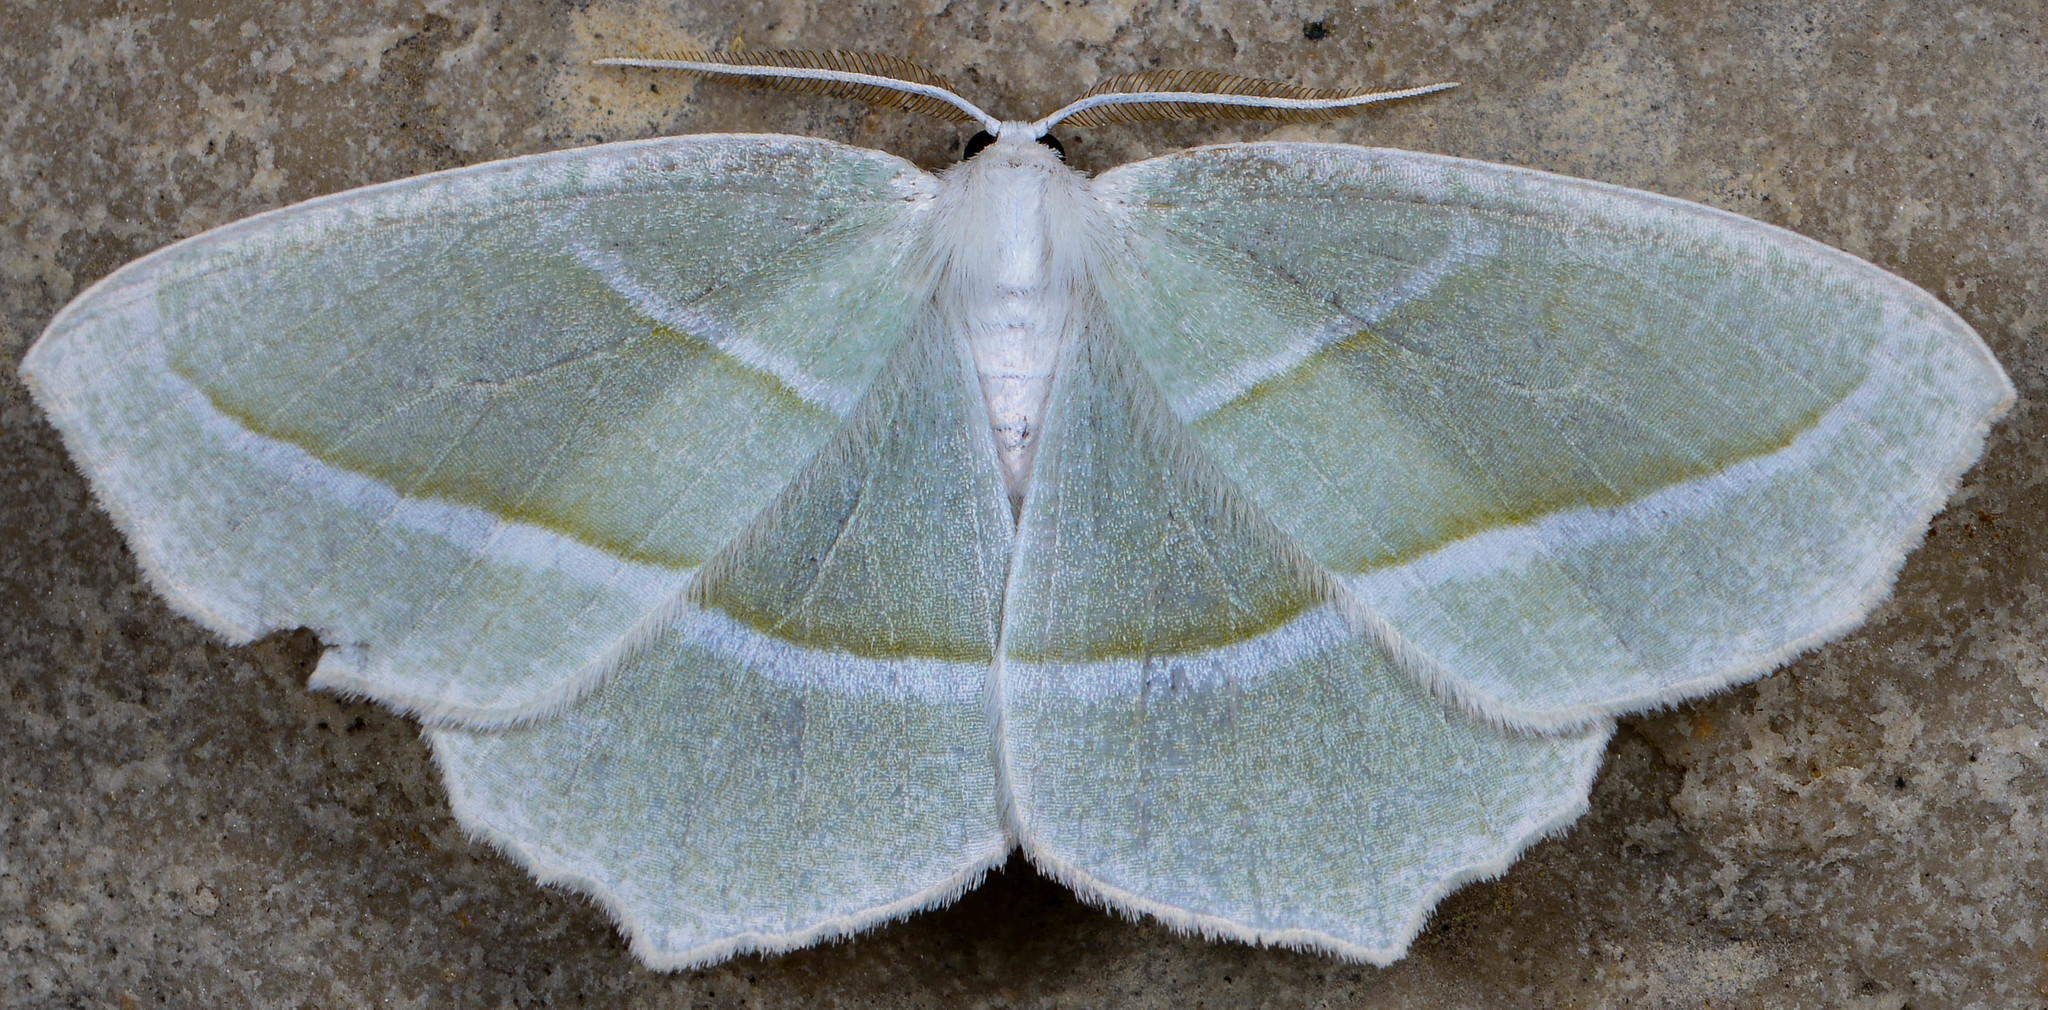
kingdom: Animalia
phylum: Arthropoda
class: Insecta
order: Lepidoptera
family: Geometridae
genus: Campaea
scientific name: Campaea perlata
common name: Fringed looper
